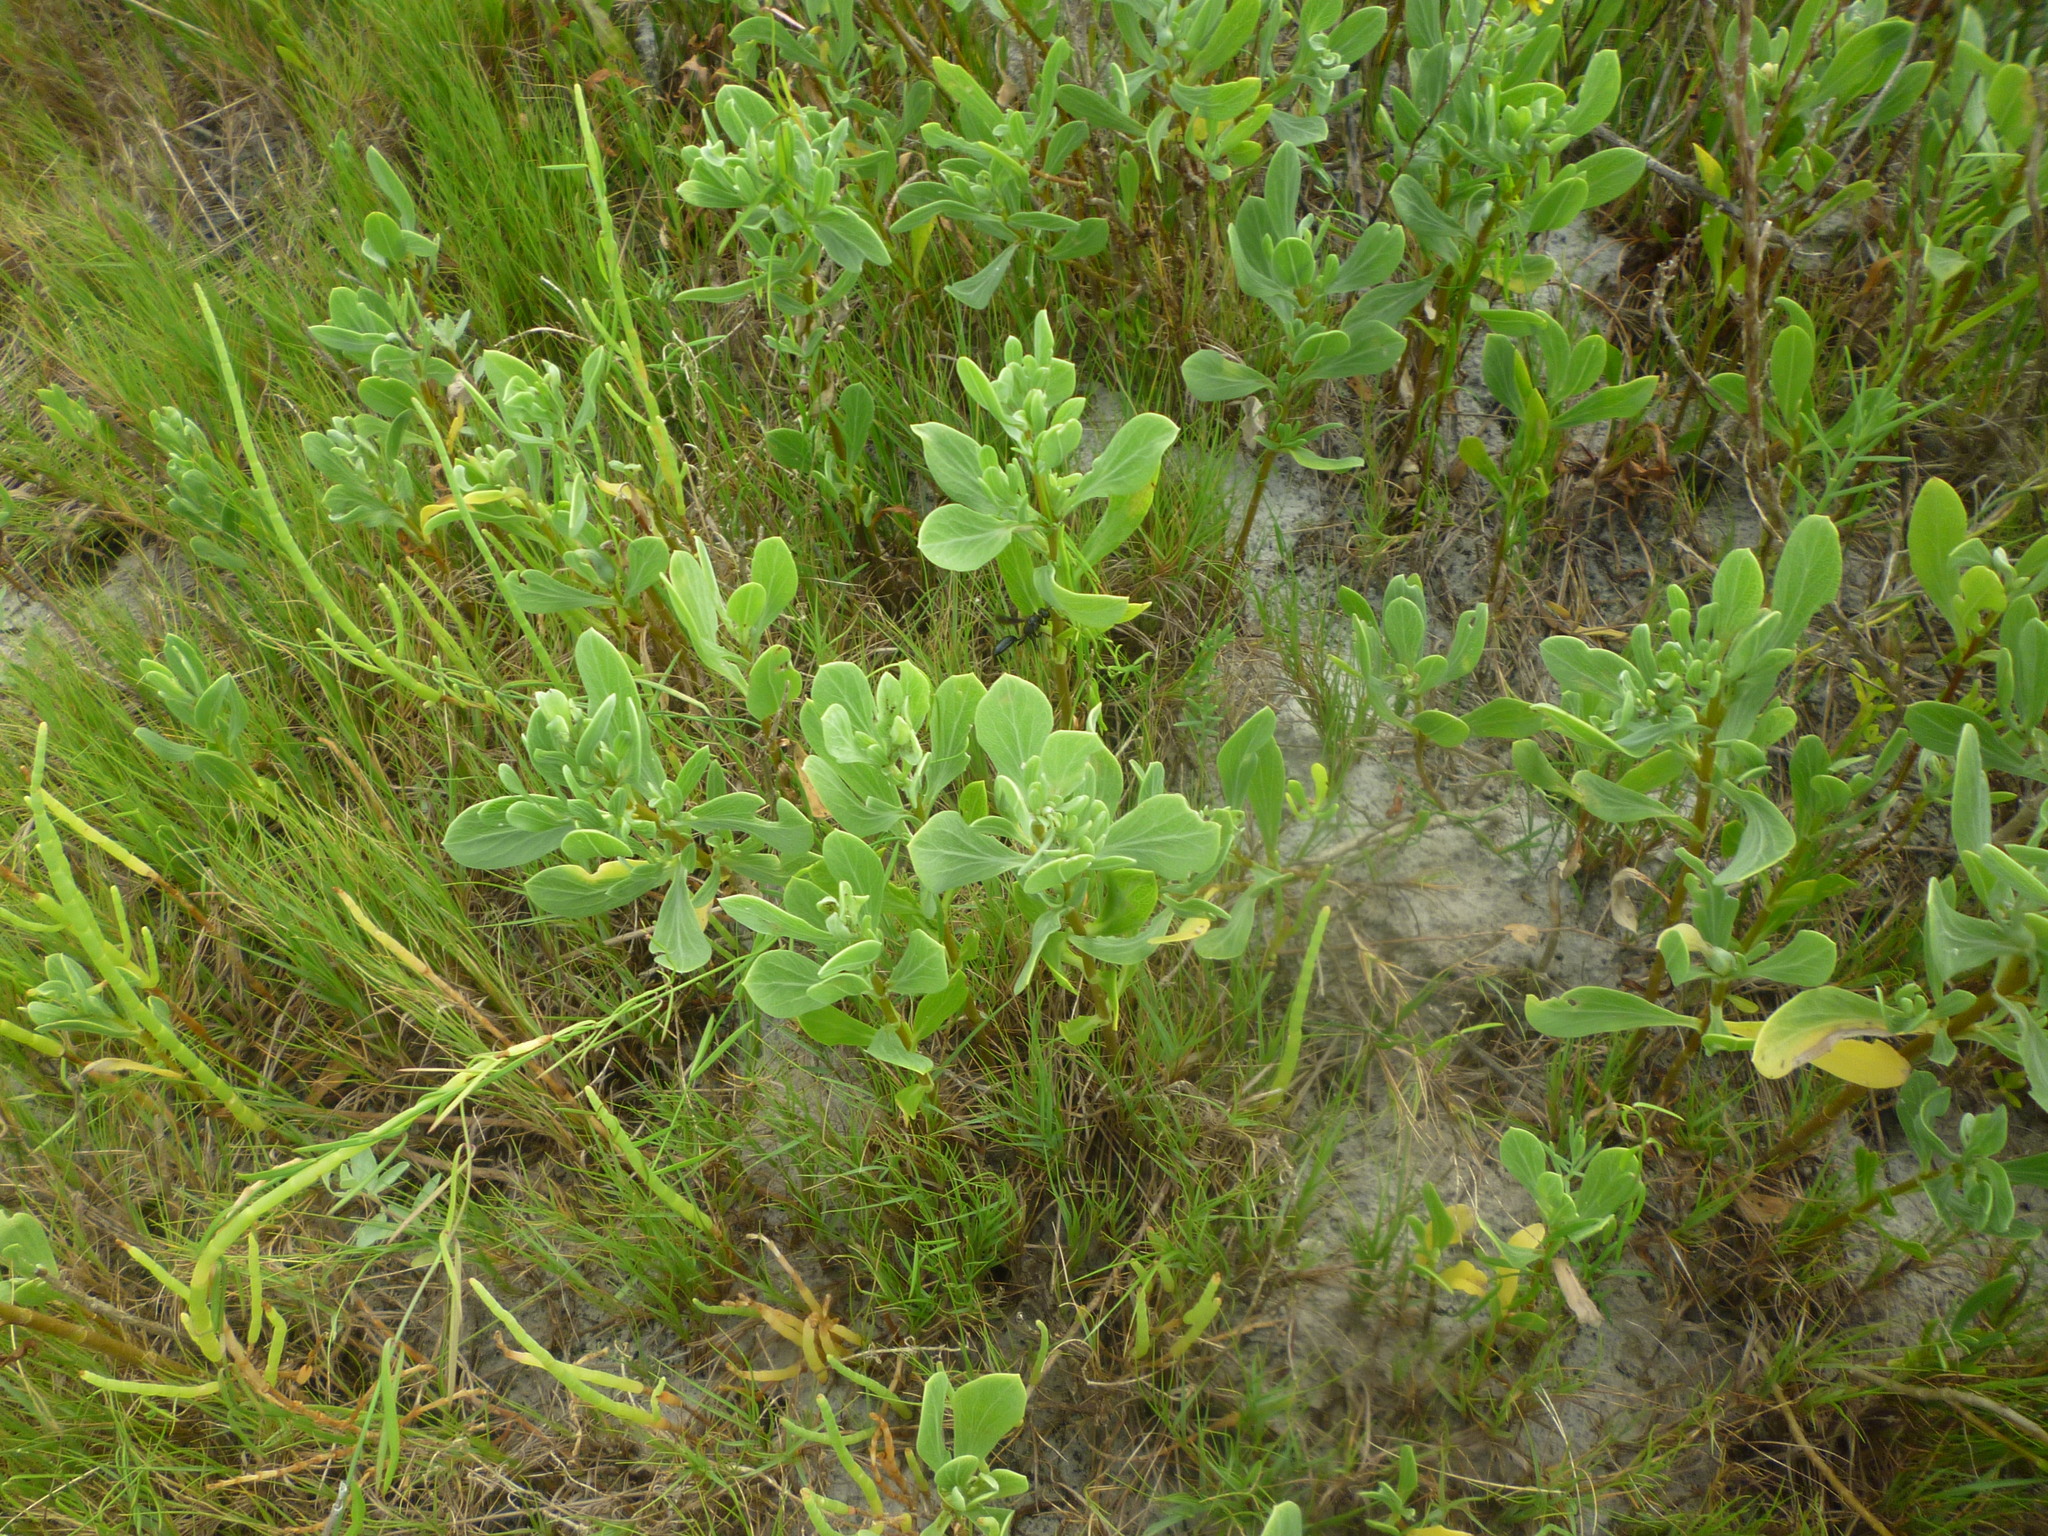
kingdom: Plantae
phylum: Tracheophyta
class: Magnoliopsida
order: Asterales
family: Asteraceae
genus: Borrichia
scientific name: Borrichia frutescens
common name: Sea oxeye
